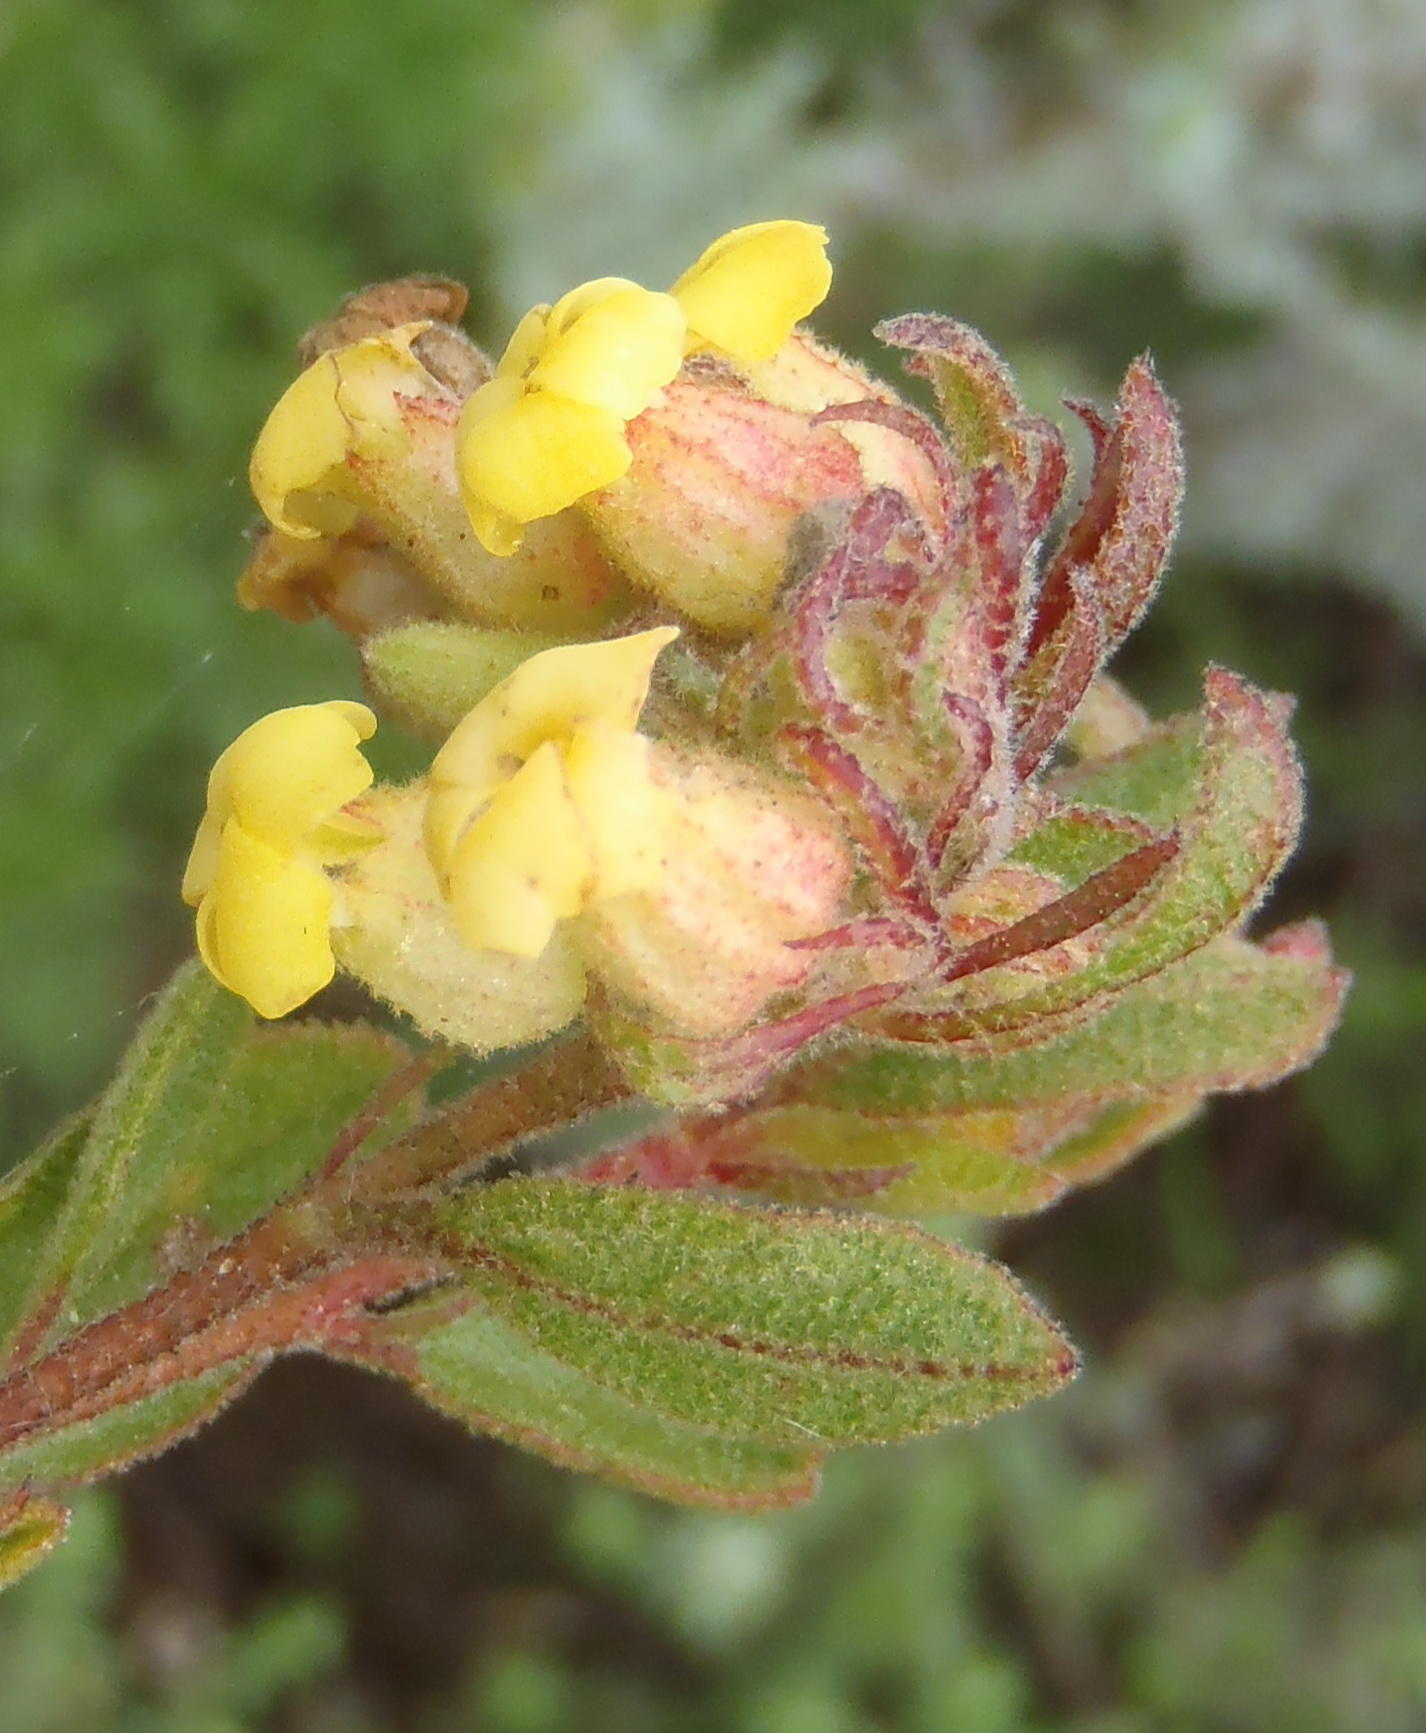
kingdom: Plantae
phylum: Tracheophyta
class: Magnoliopsida
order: Malvales
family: Malvaceae
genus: Hermannia
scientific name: Hermannia salviifolia
